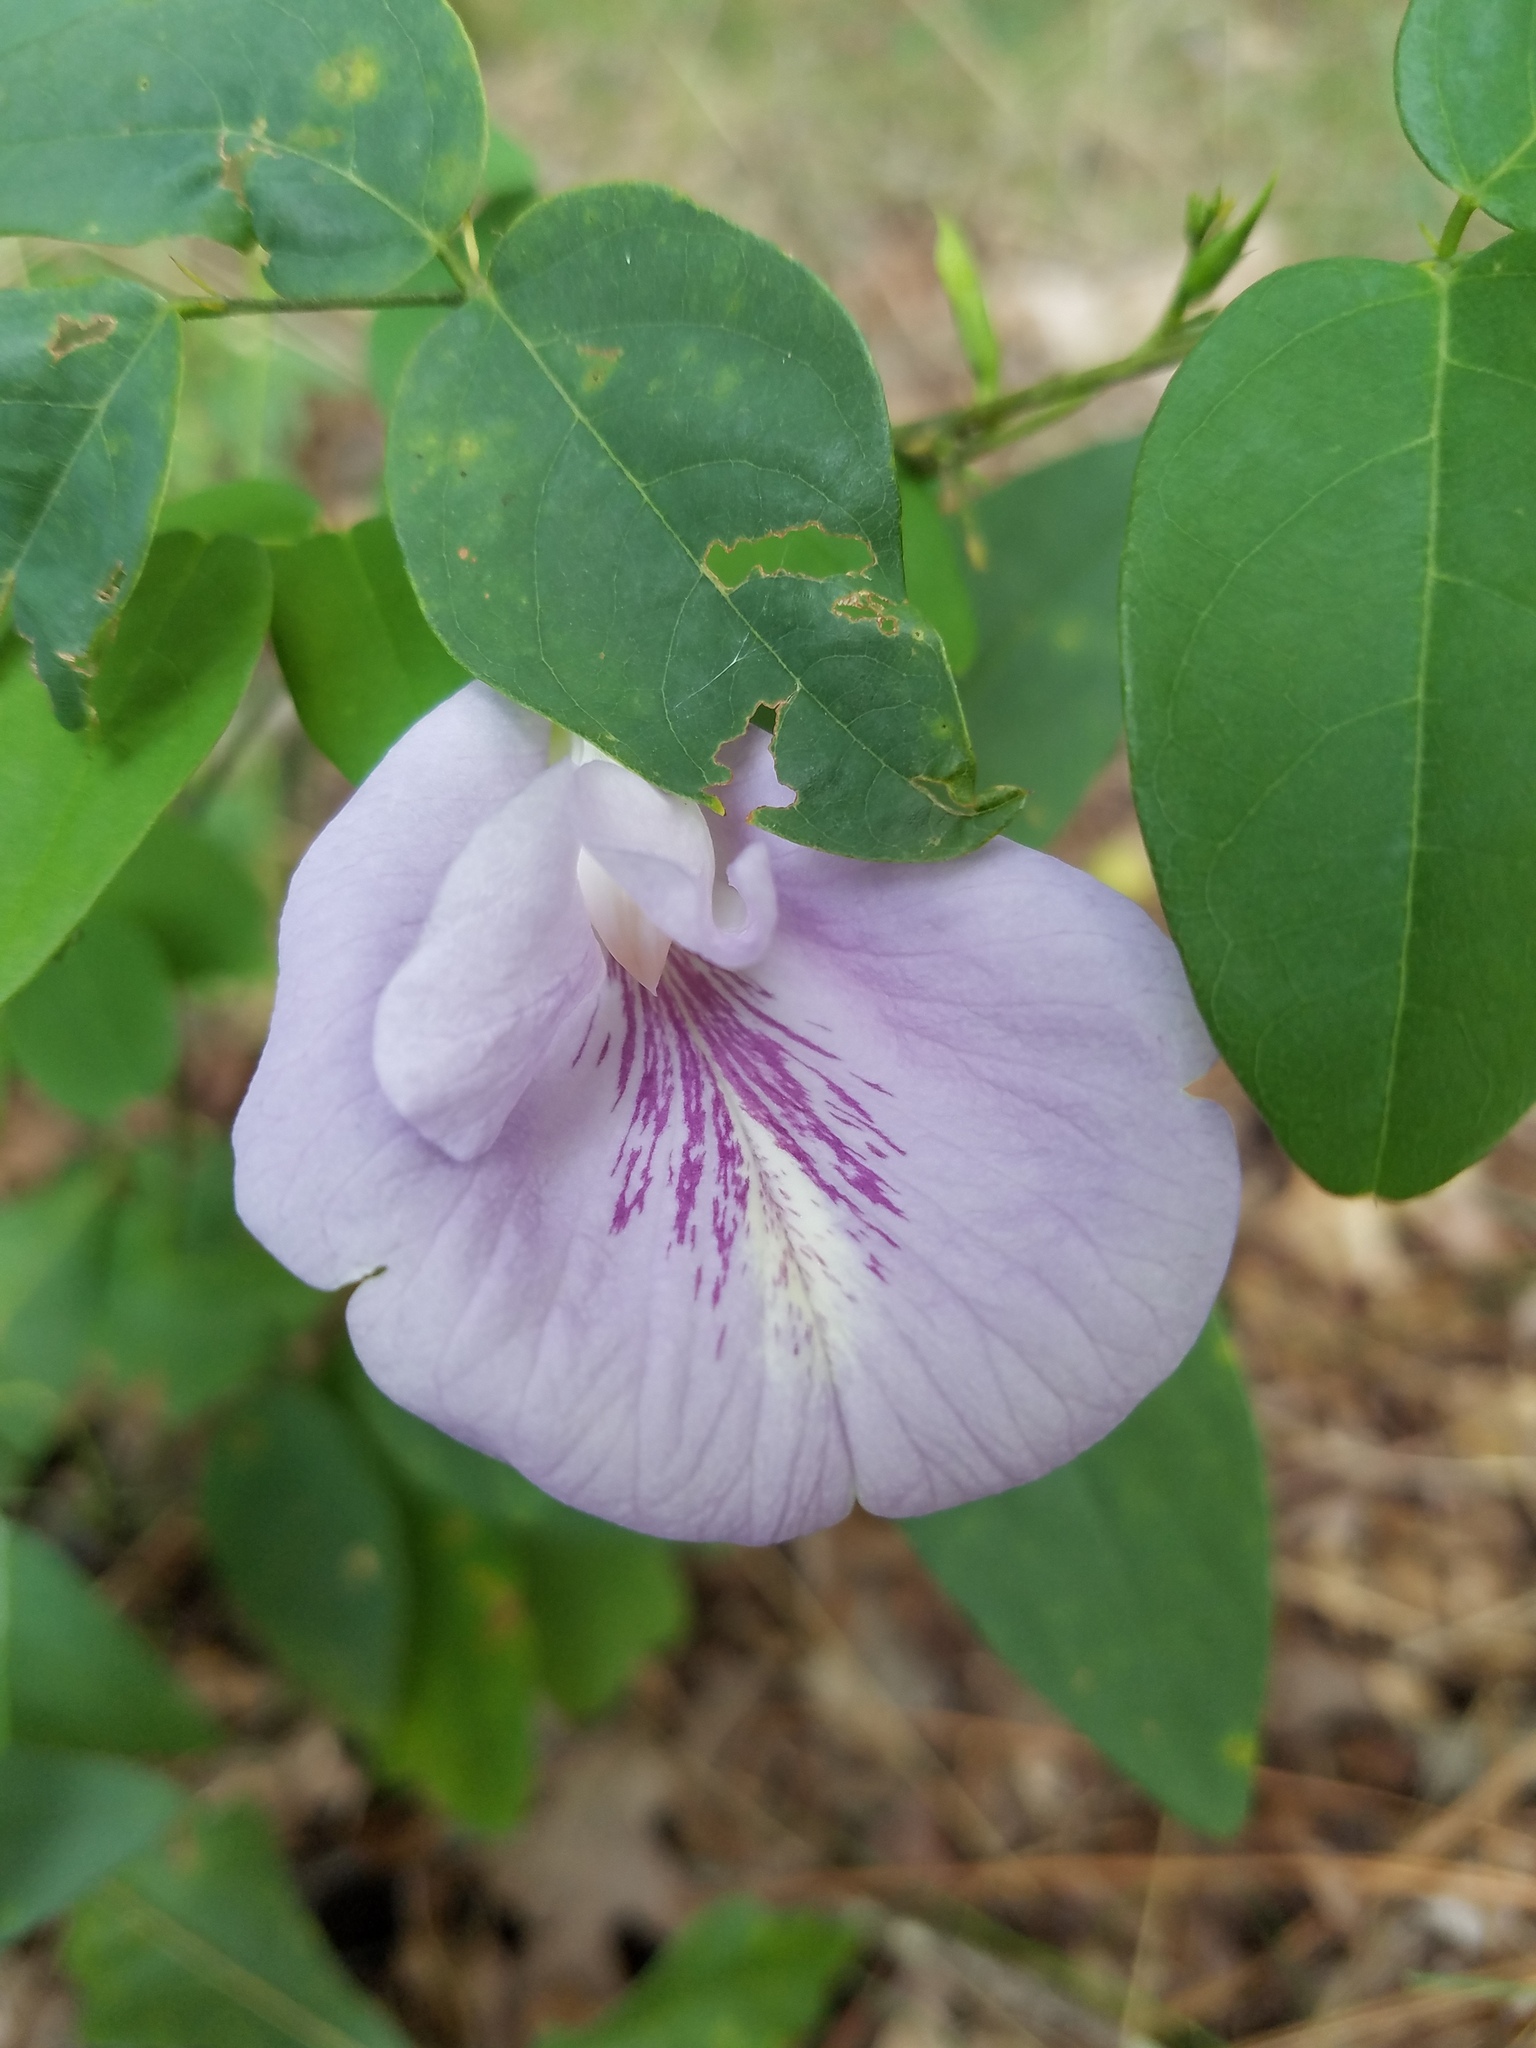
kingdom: Plantae
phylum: Tracheophyta
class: Magnoliopsida
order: Fabales
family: Fabaceae
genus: Clitoria
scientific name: Clitoria mariana
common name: Butterfly-pea
